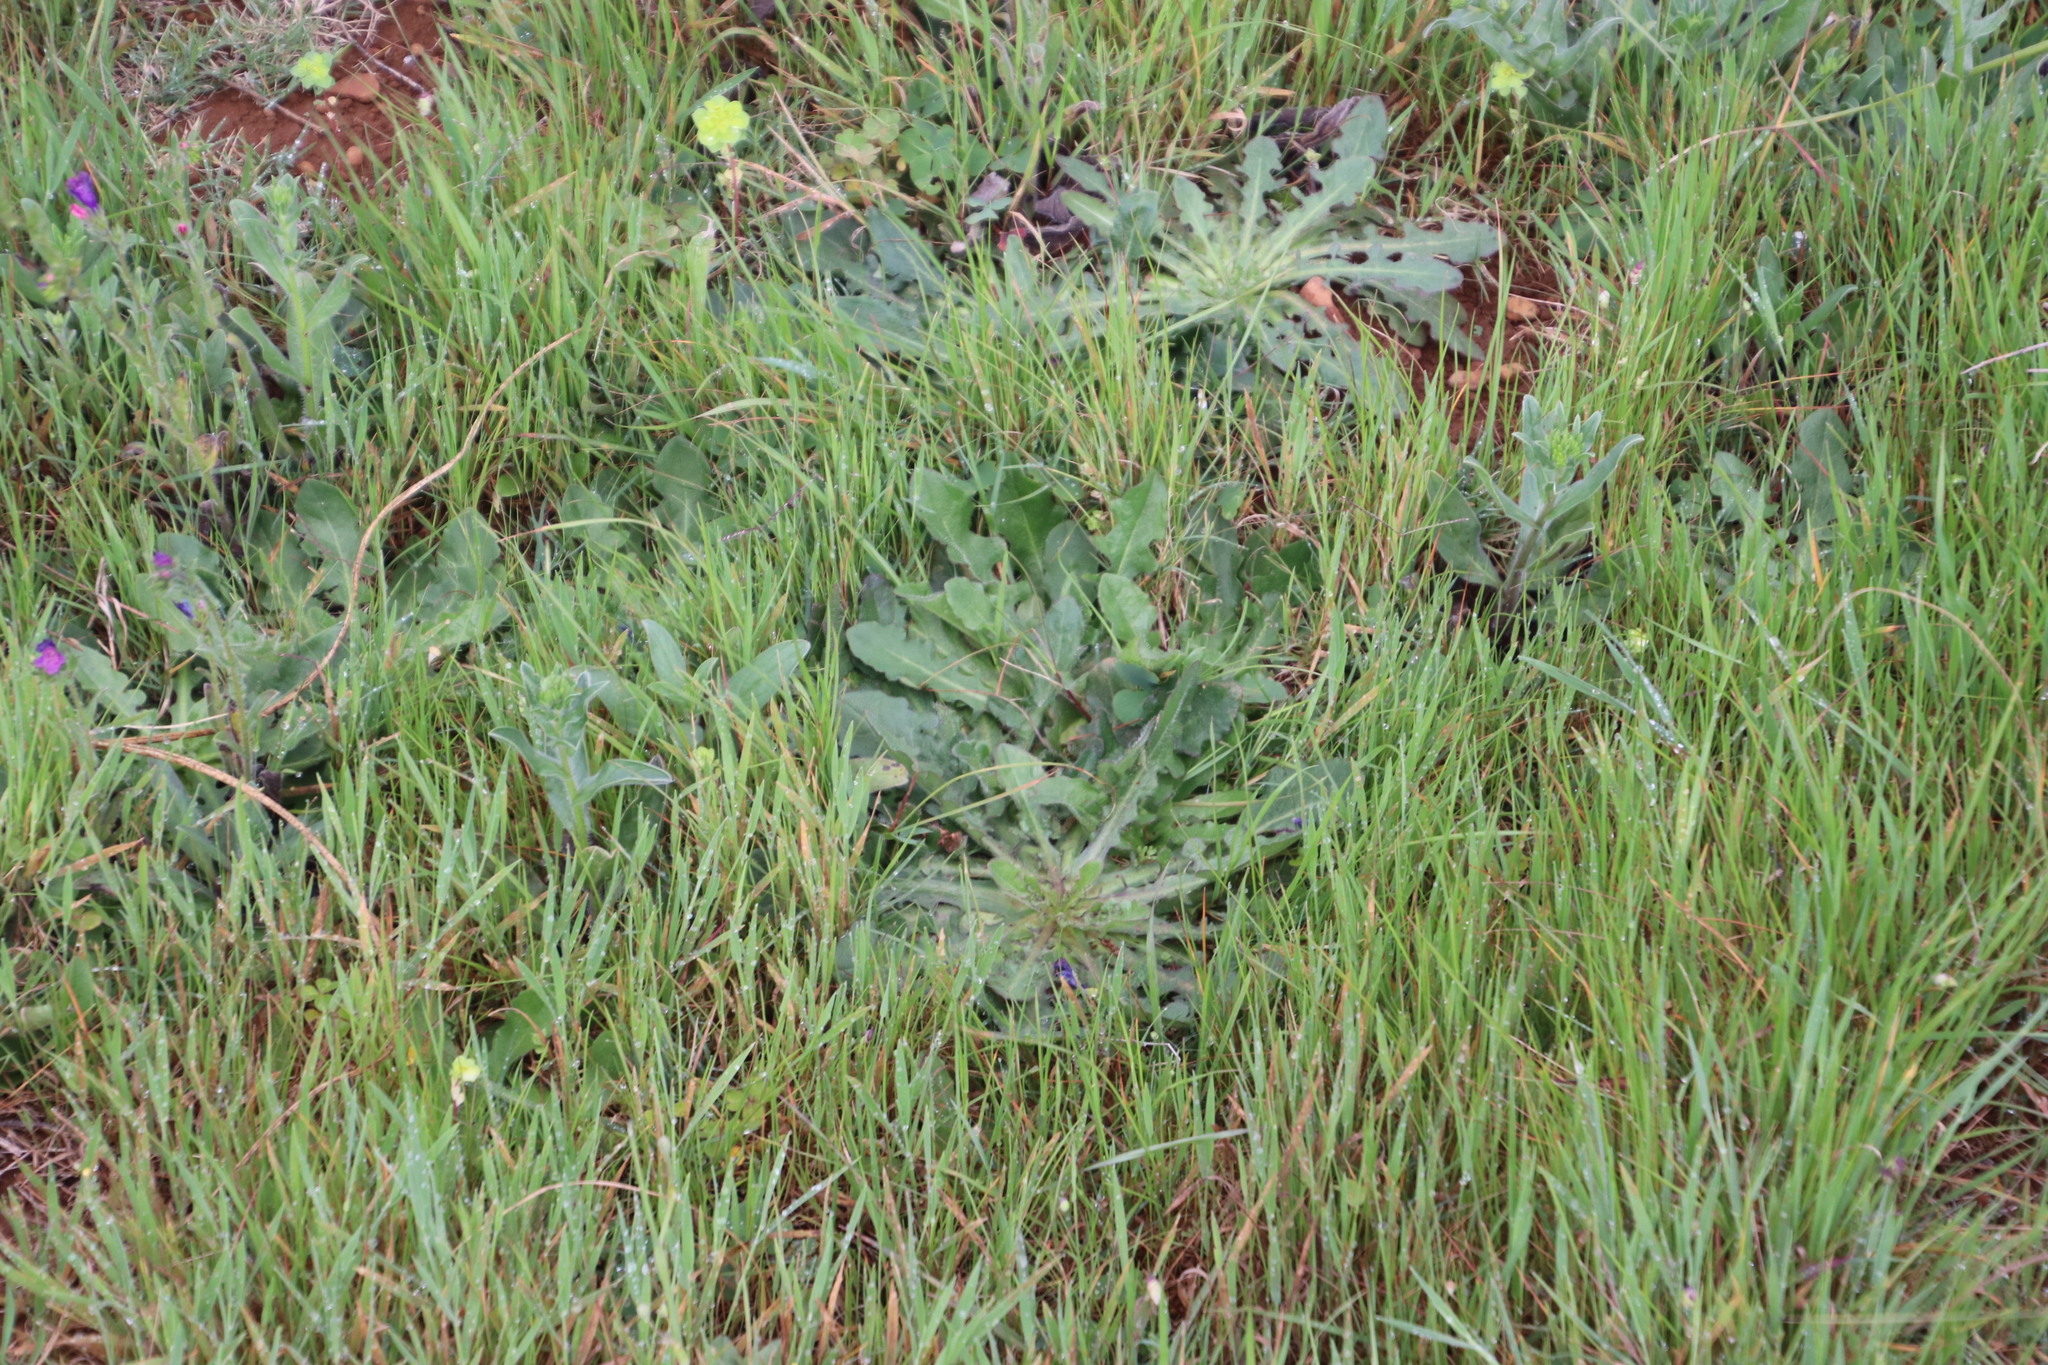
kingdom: Plantae
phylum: Tracheophyta
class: Magnoliopsida
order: Asterales
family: Asteraceae
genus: Hypochaeris
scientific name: Hypochaeris radicata
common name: Flatweed
